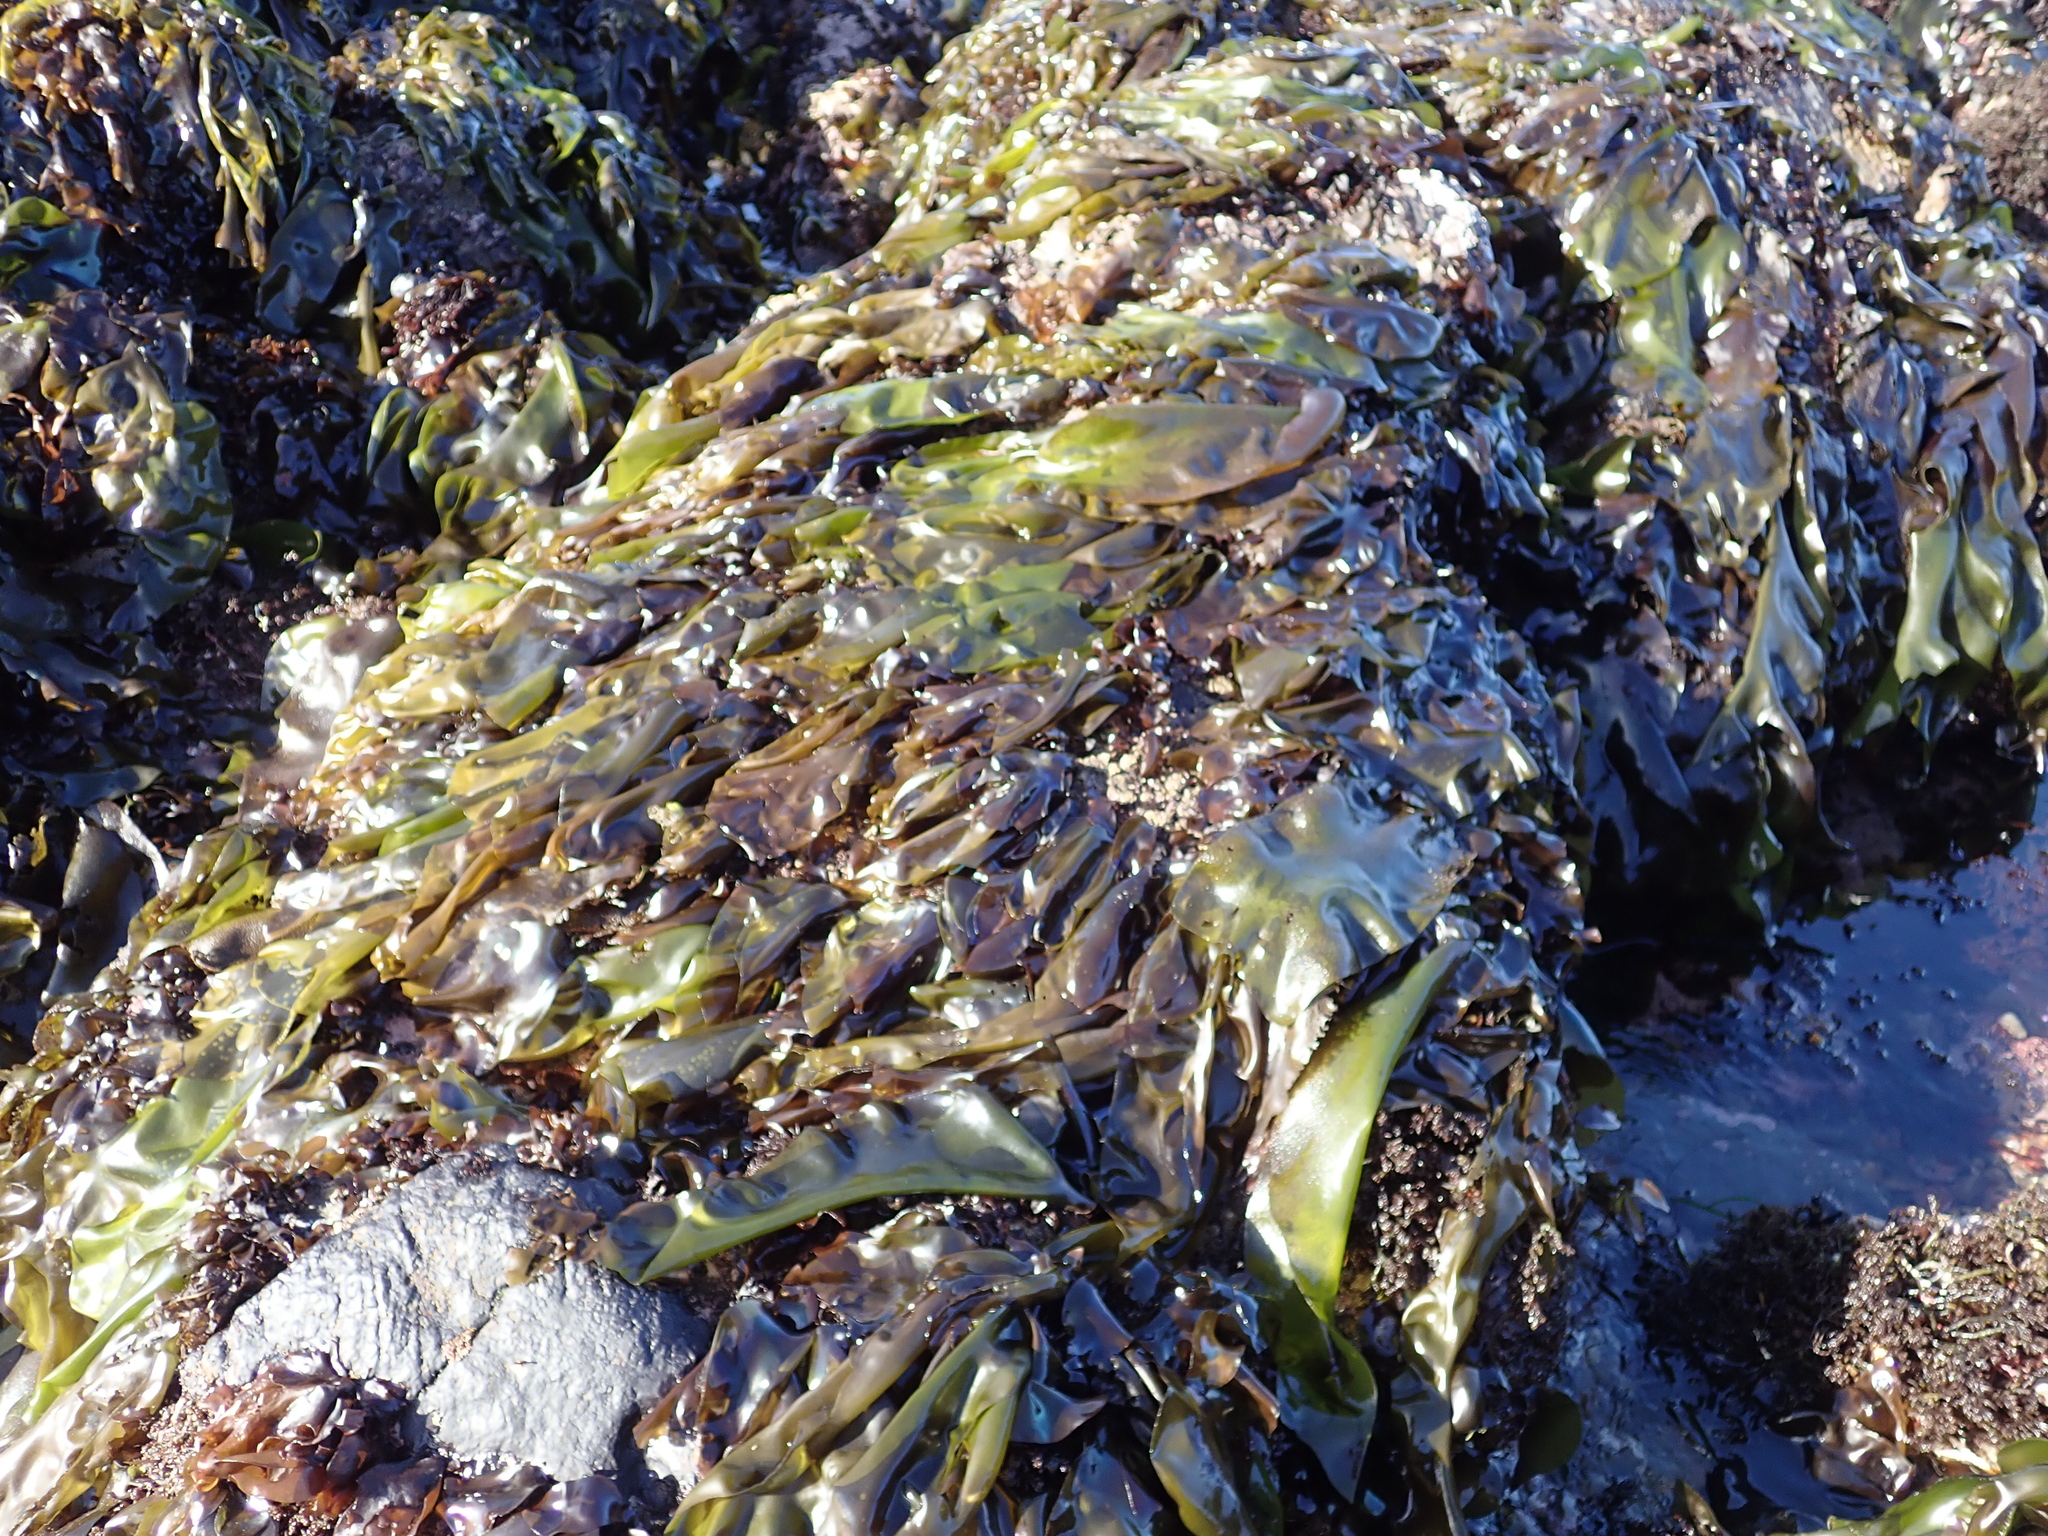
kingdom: Plantae
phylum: Rhodophyta
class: Florideophyceae
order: Gigartinales
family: Gigartinaceae
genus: Mazzaella
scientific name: Mazzaella flaccida
